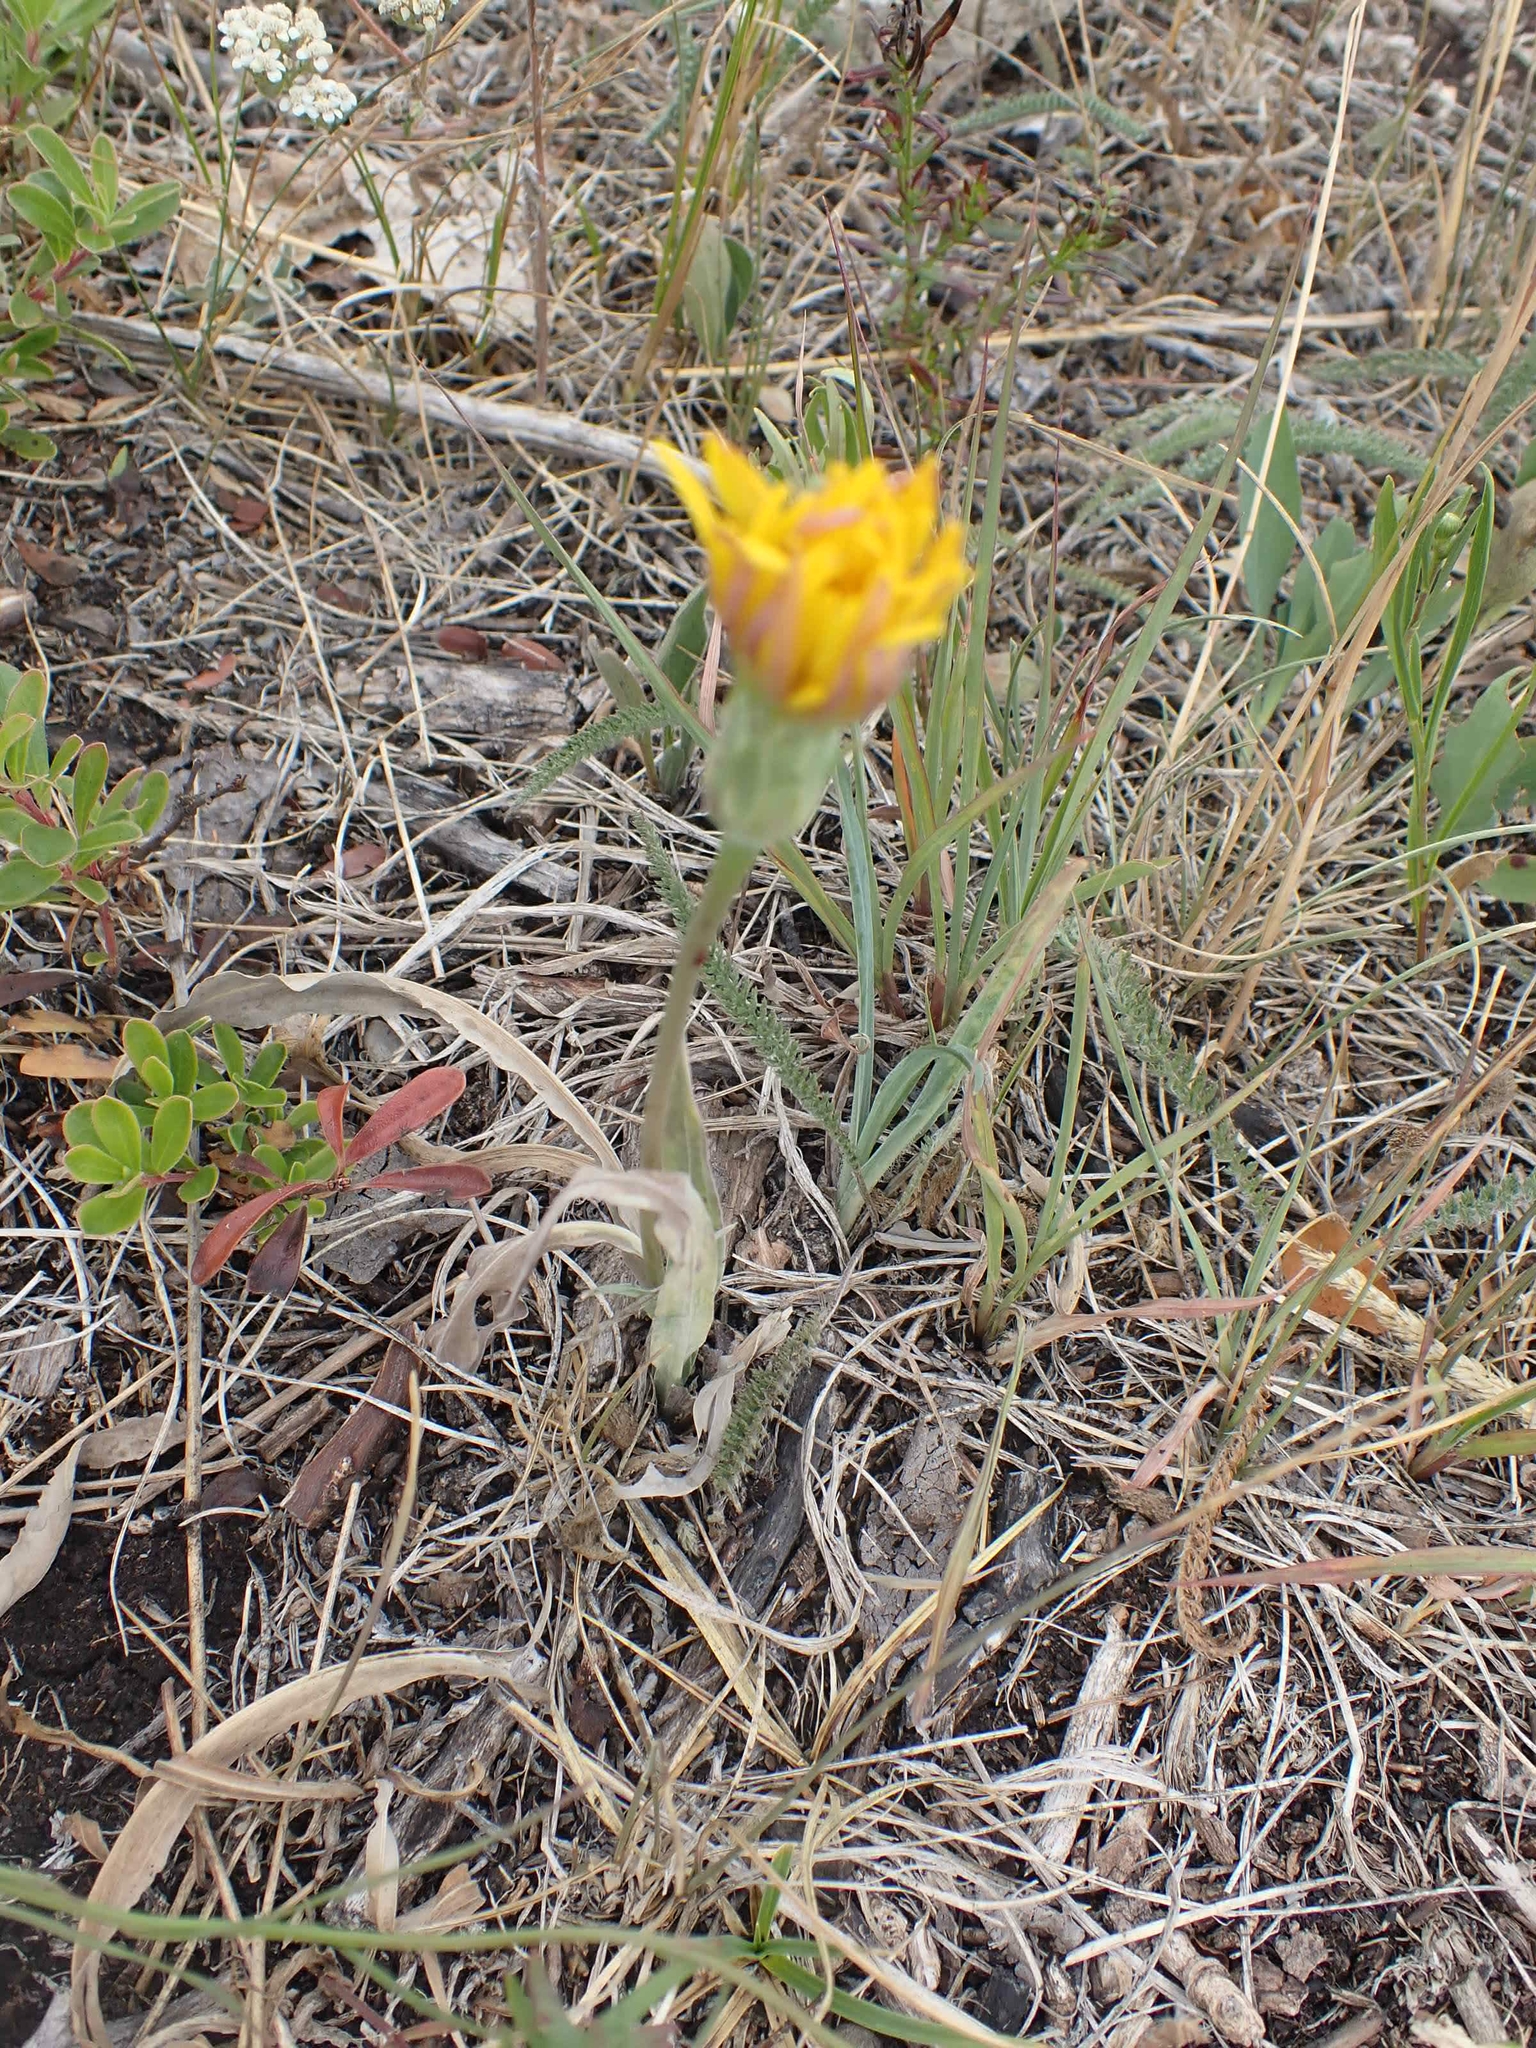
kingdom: Plantae
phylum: Tracheophyta
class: Magnoliopsida
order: Asterales
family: Asteraceae
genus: Agoseris
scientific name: Agoseris glauca
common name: Prairie agoseris
